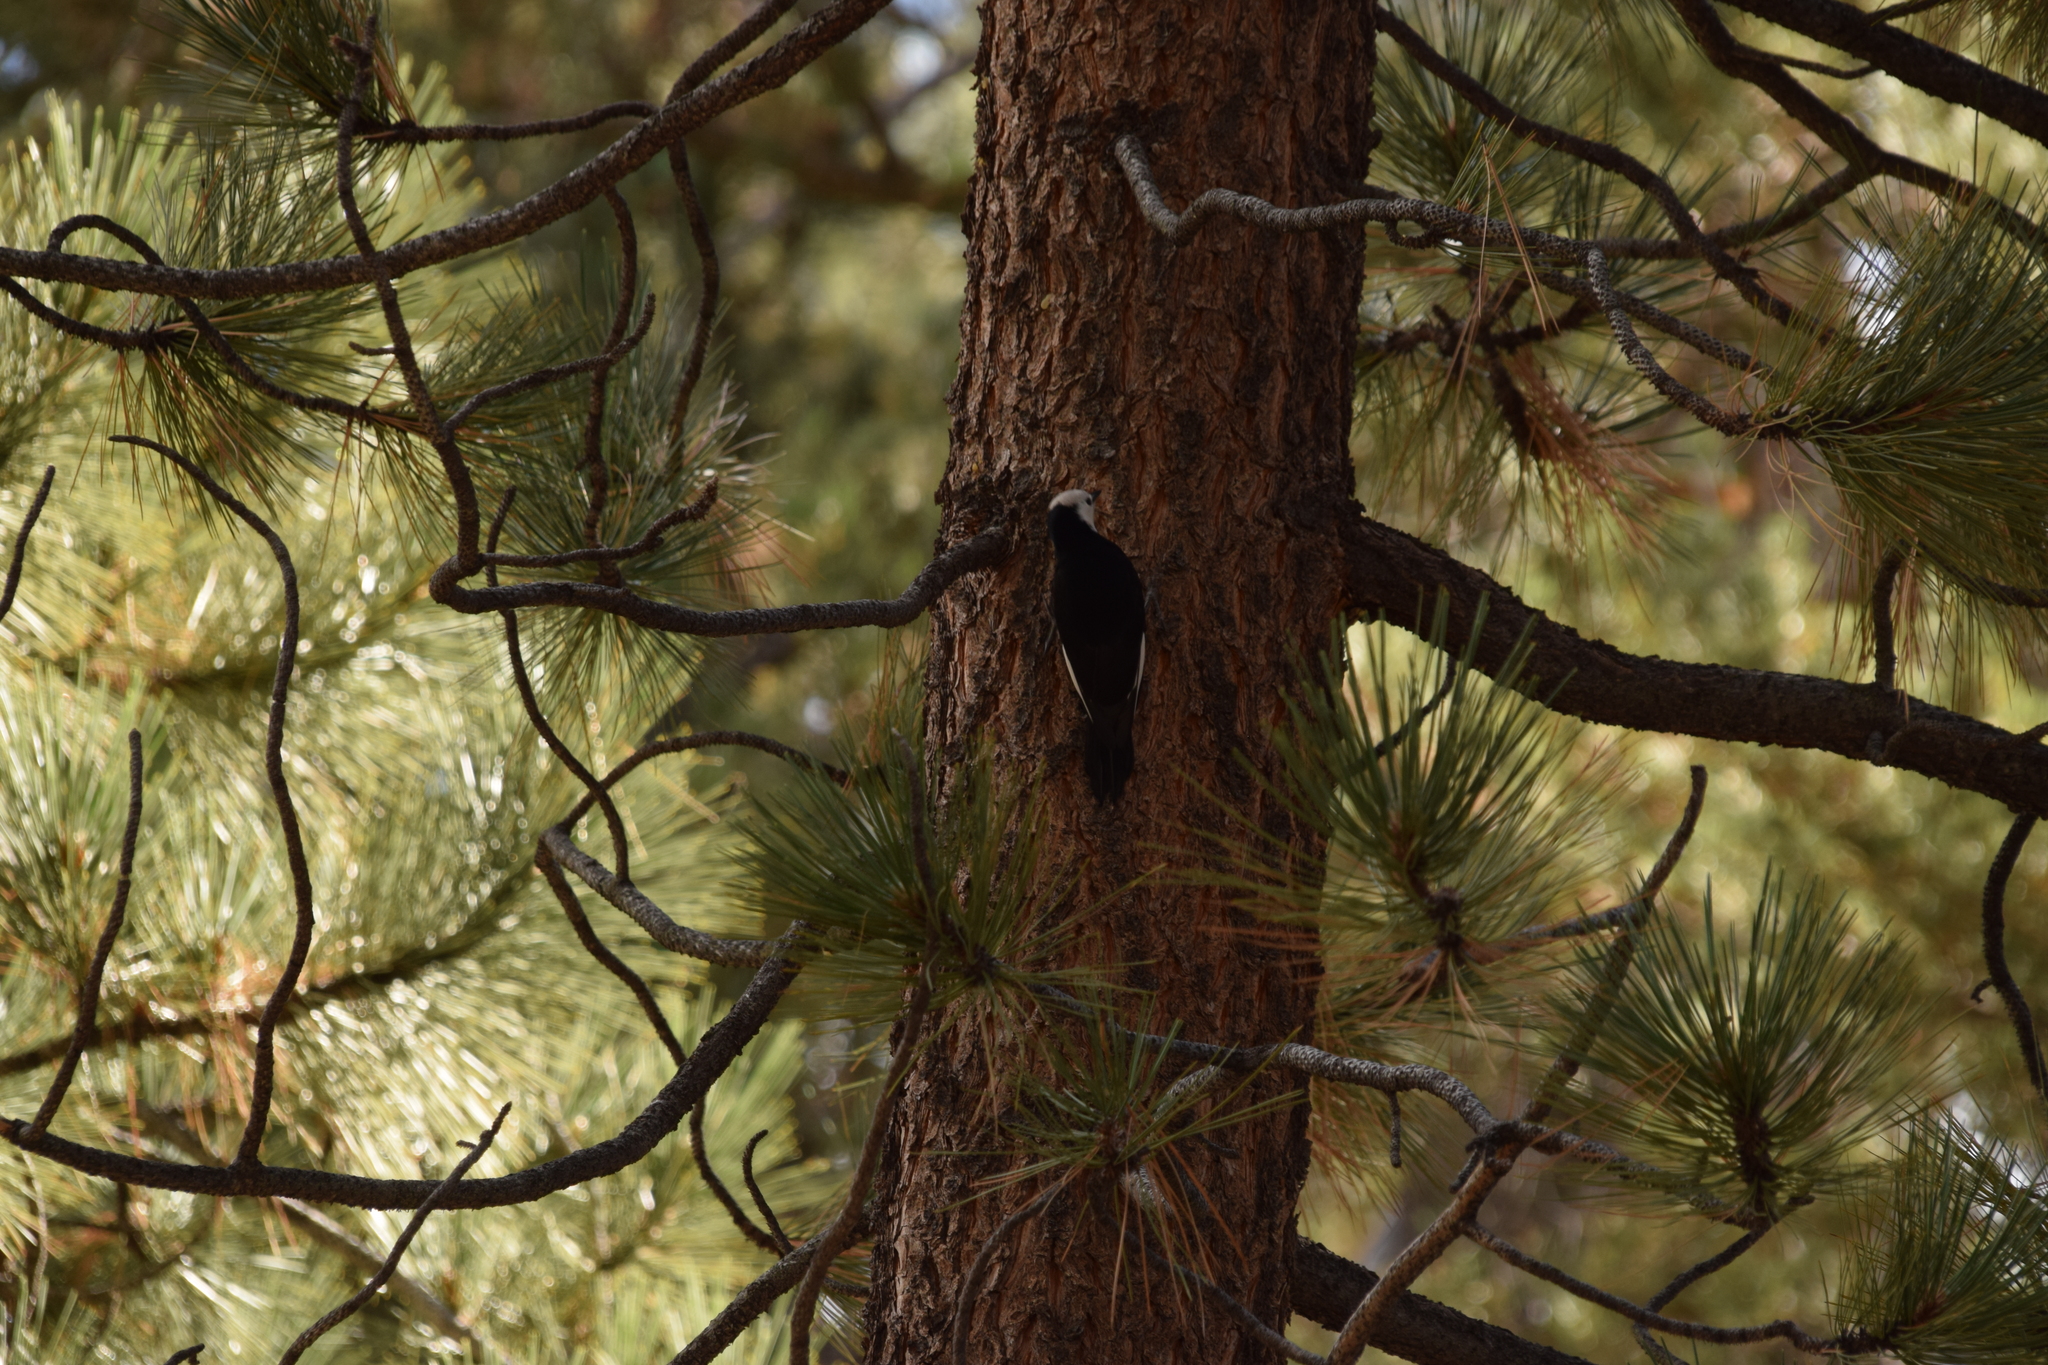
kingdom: Animalia
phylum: Chordata
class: Aves
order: Piciformes
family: Picidae
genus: Leuconotopicus
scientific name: Leuconotopicus albolarvatus
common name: White-headed woodpecker
